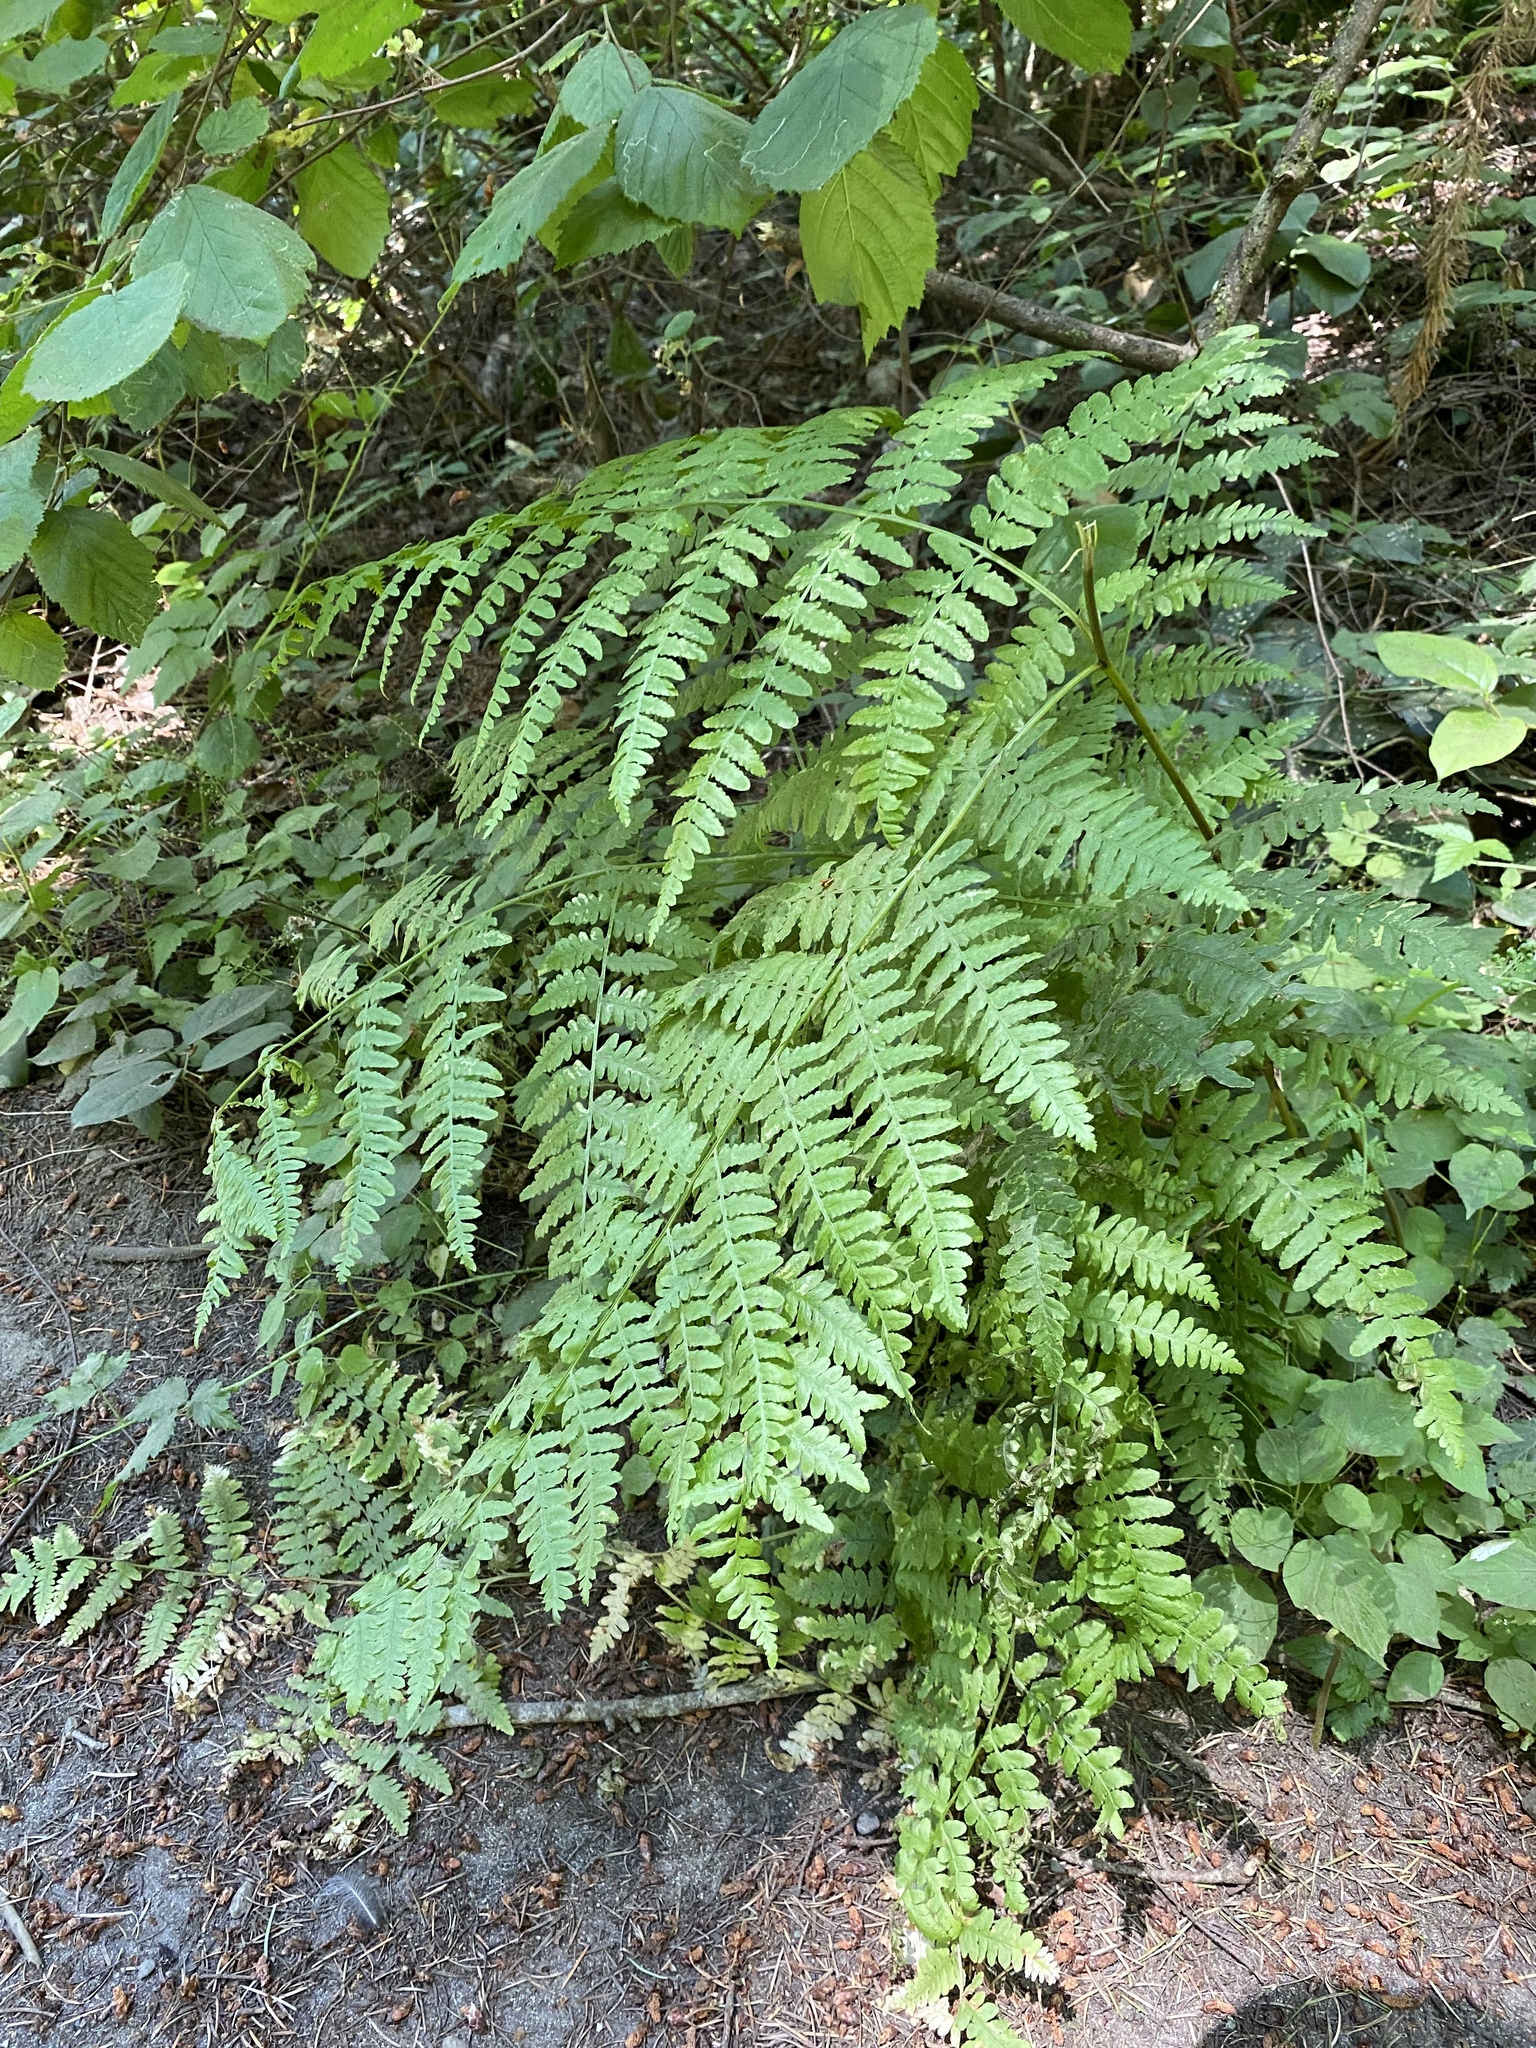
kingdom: Plantae
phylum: Tracheophyta
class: Polypodiopsida
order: Polypodiales
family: Dennstaedtiaceae
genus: Pteridium
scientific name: Pteridium aquilinum
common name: Bracken
